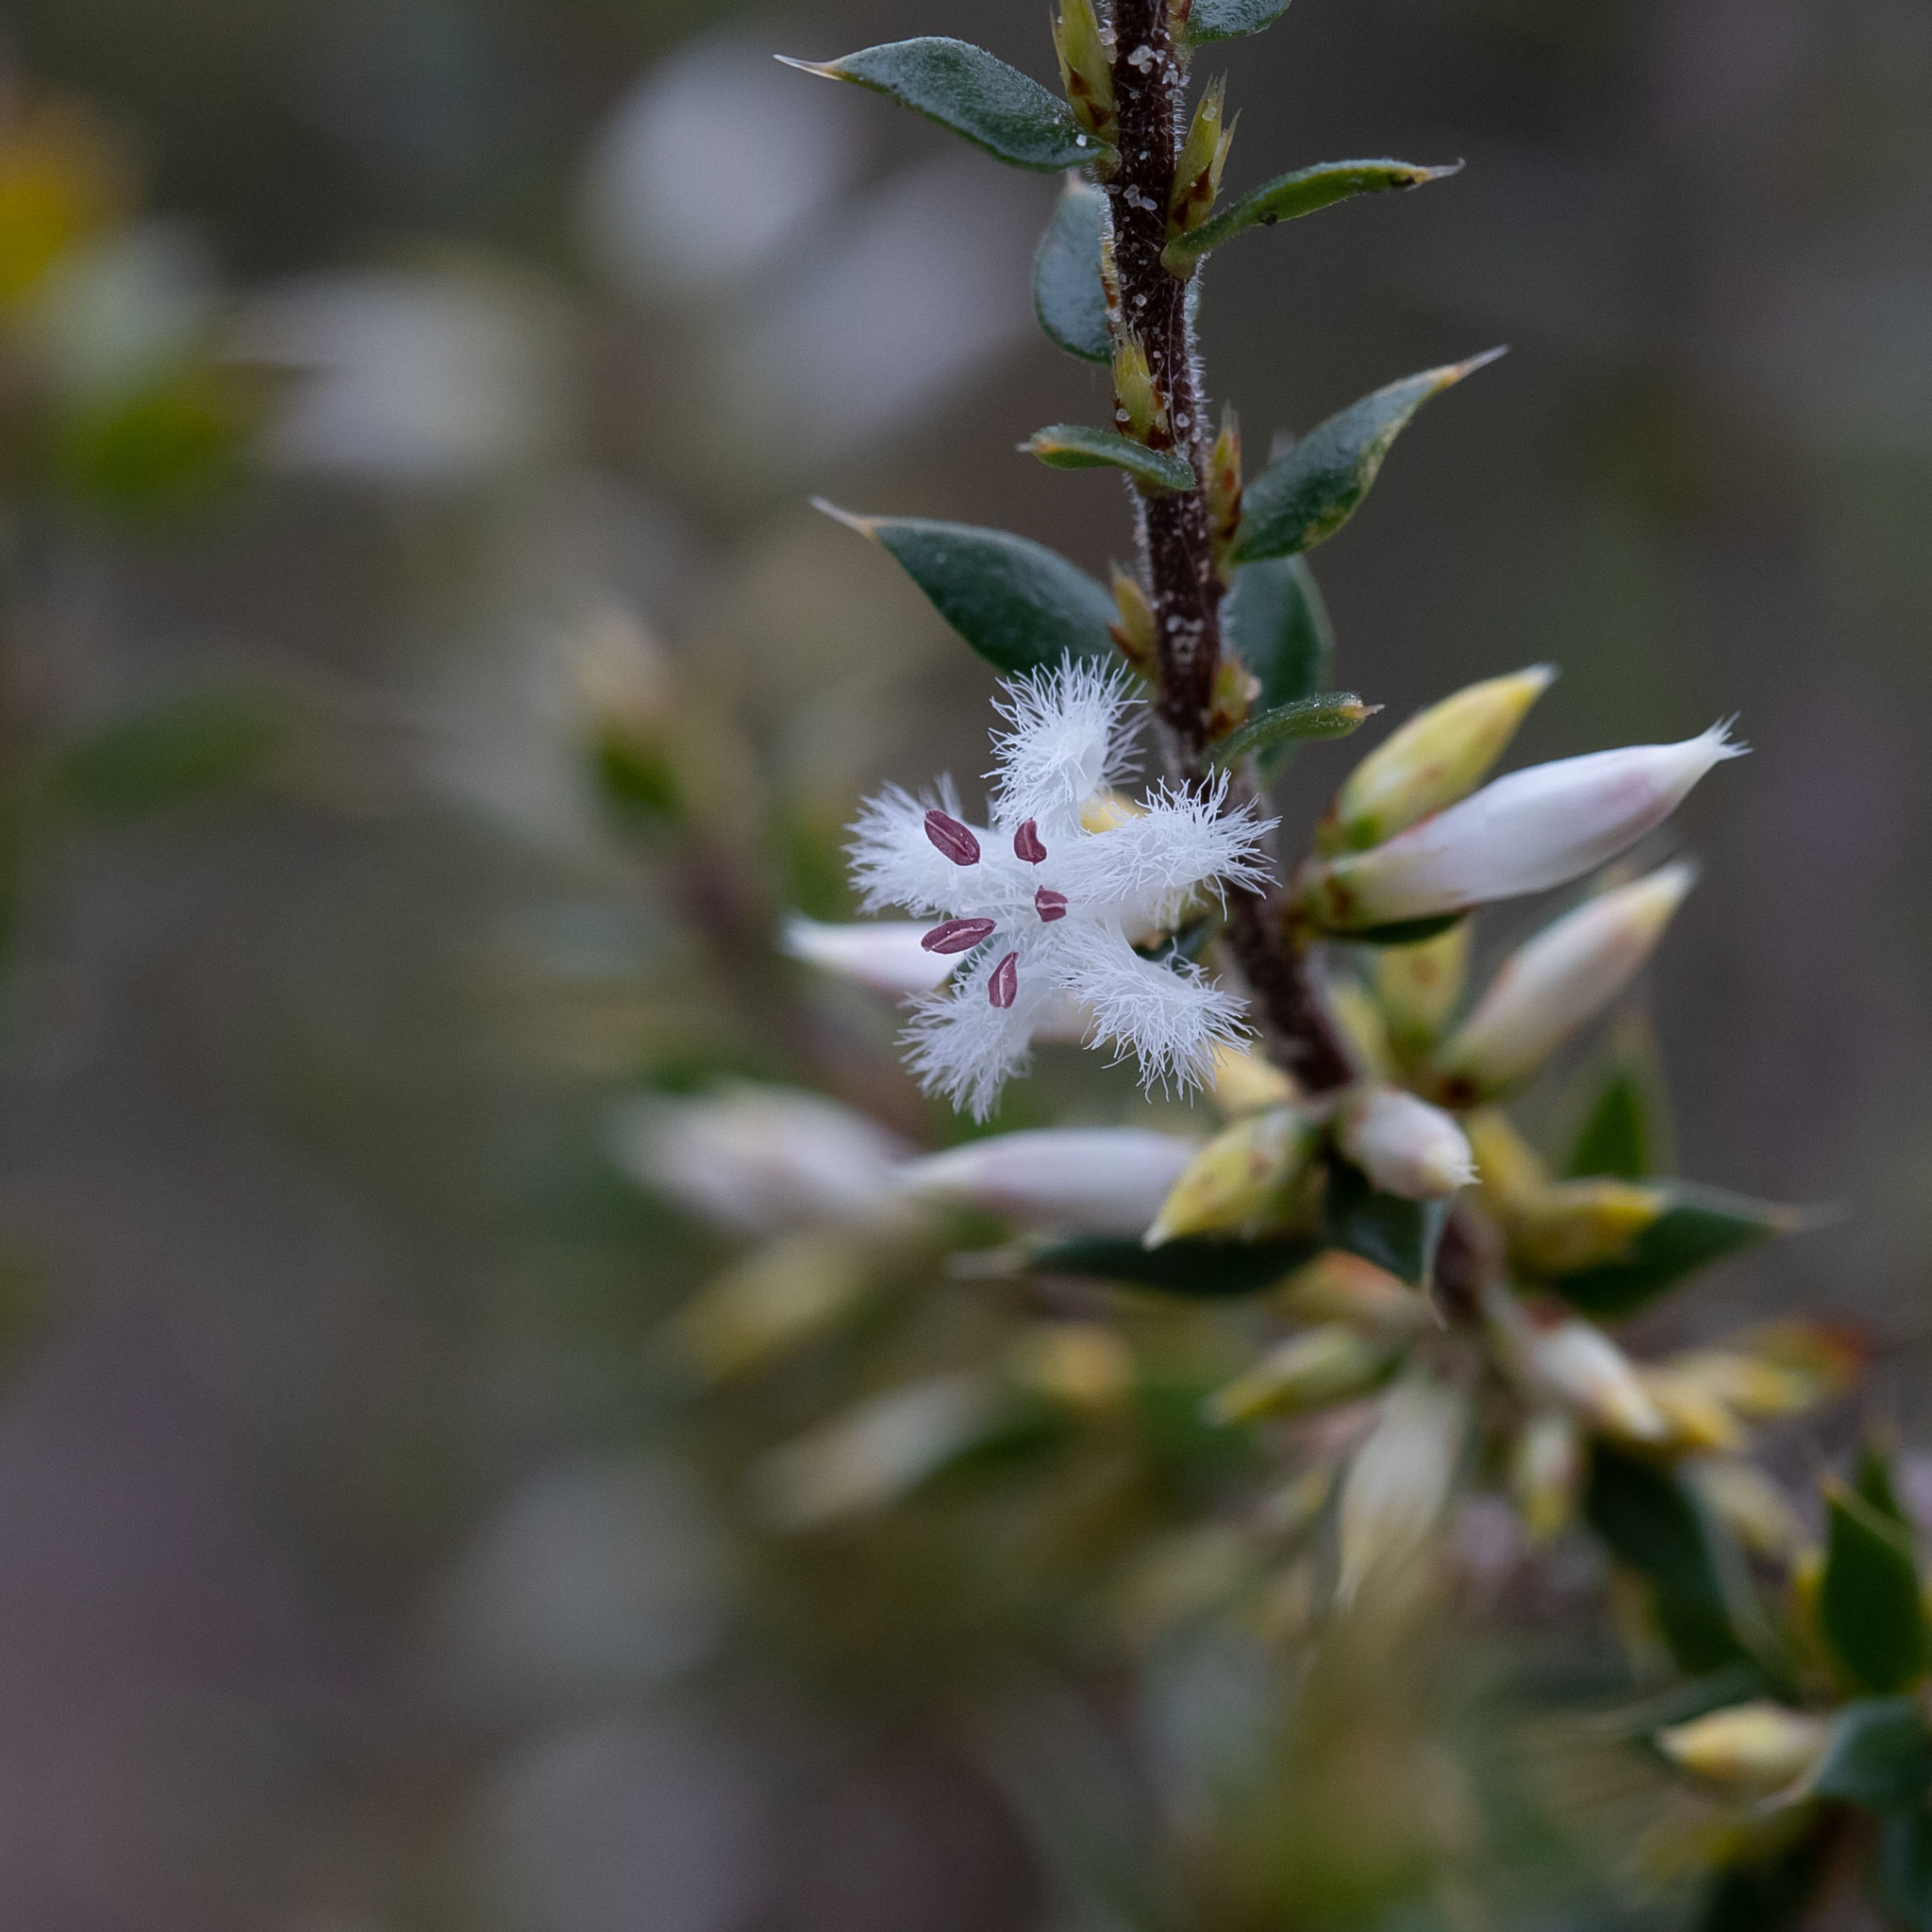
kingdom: Plantae
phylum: Tracheophyta
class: Magnoliopsida
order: Ericales
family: Ericaceae
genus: Styphelia
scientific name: Styphelia exarrhena
